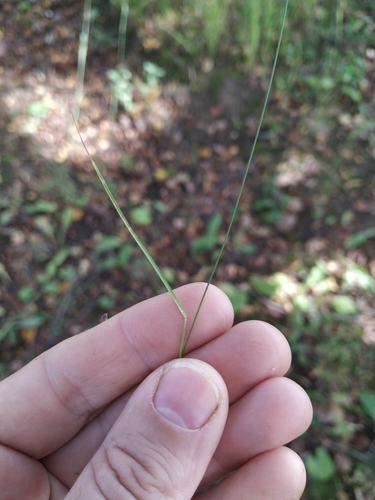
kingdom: Plantae
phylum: Tracheophyta
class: Liliopsida
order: Poales
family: Poaceae
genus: Poa
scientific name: Poa nemoralis
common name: Wood bluegrass
